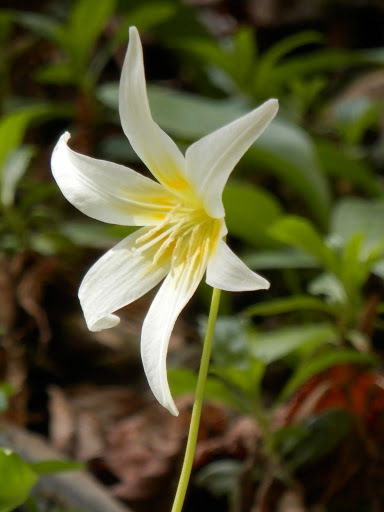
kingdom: Plantae
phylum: Tracheophyta
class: Liliopsida
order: Liliales
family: Liliaceae
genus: Erythronium
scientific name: Erythronium multiscapideum
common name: Sierra foothills fawn-lily
